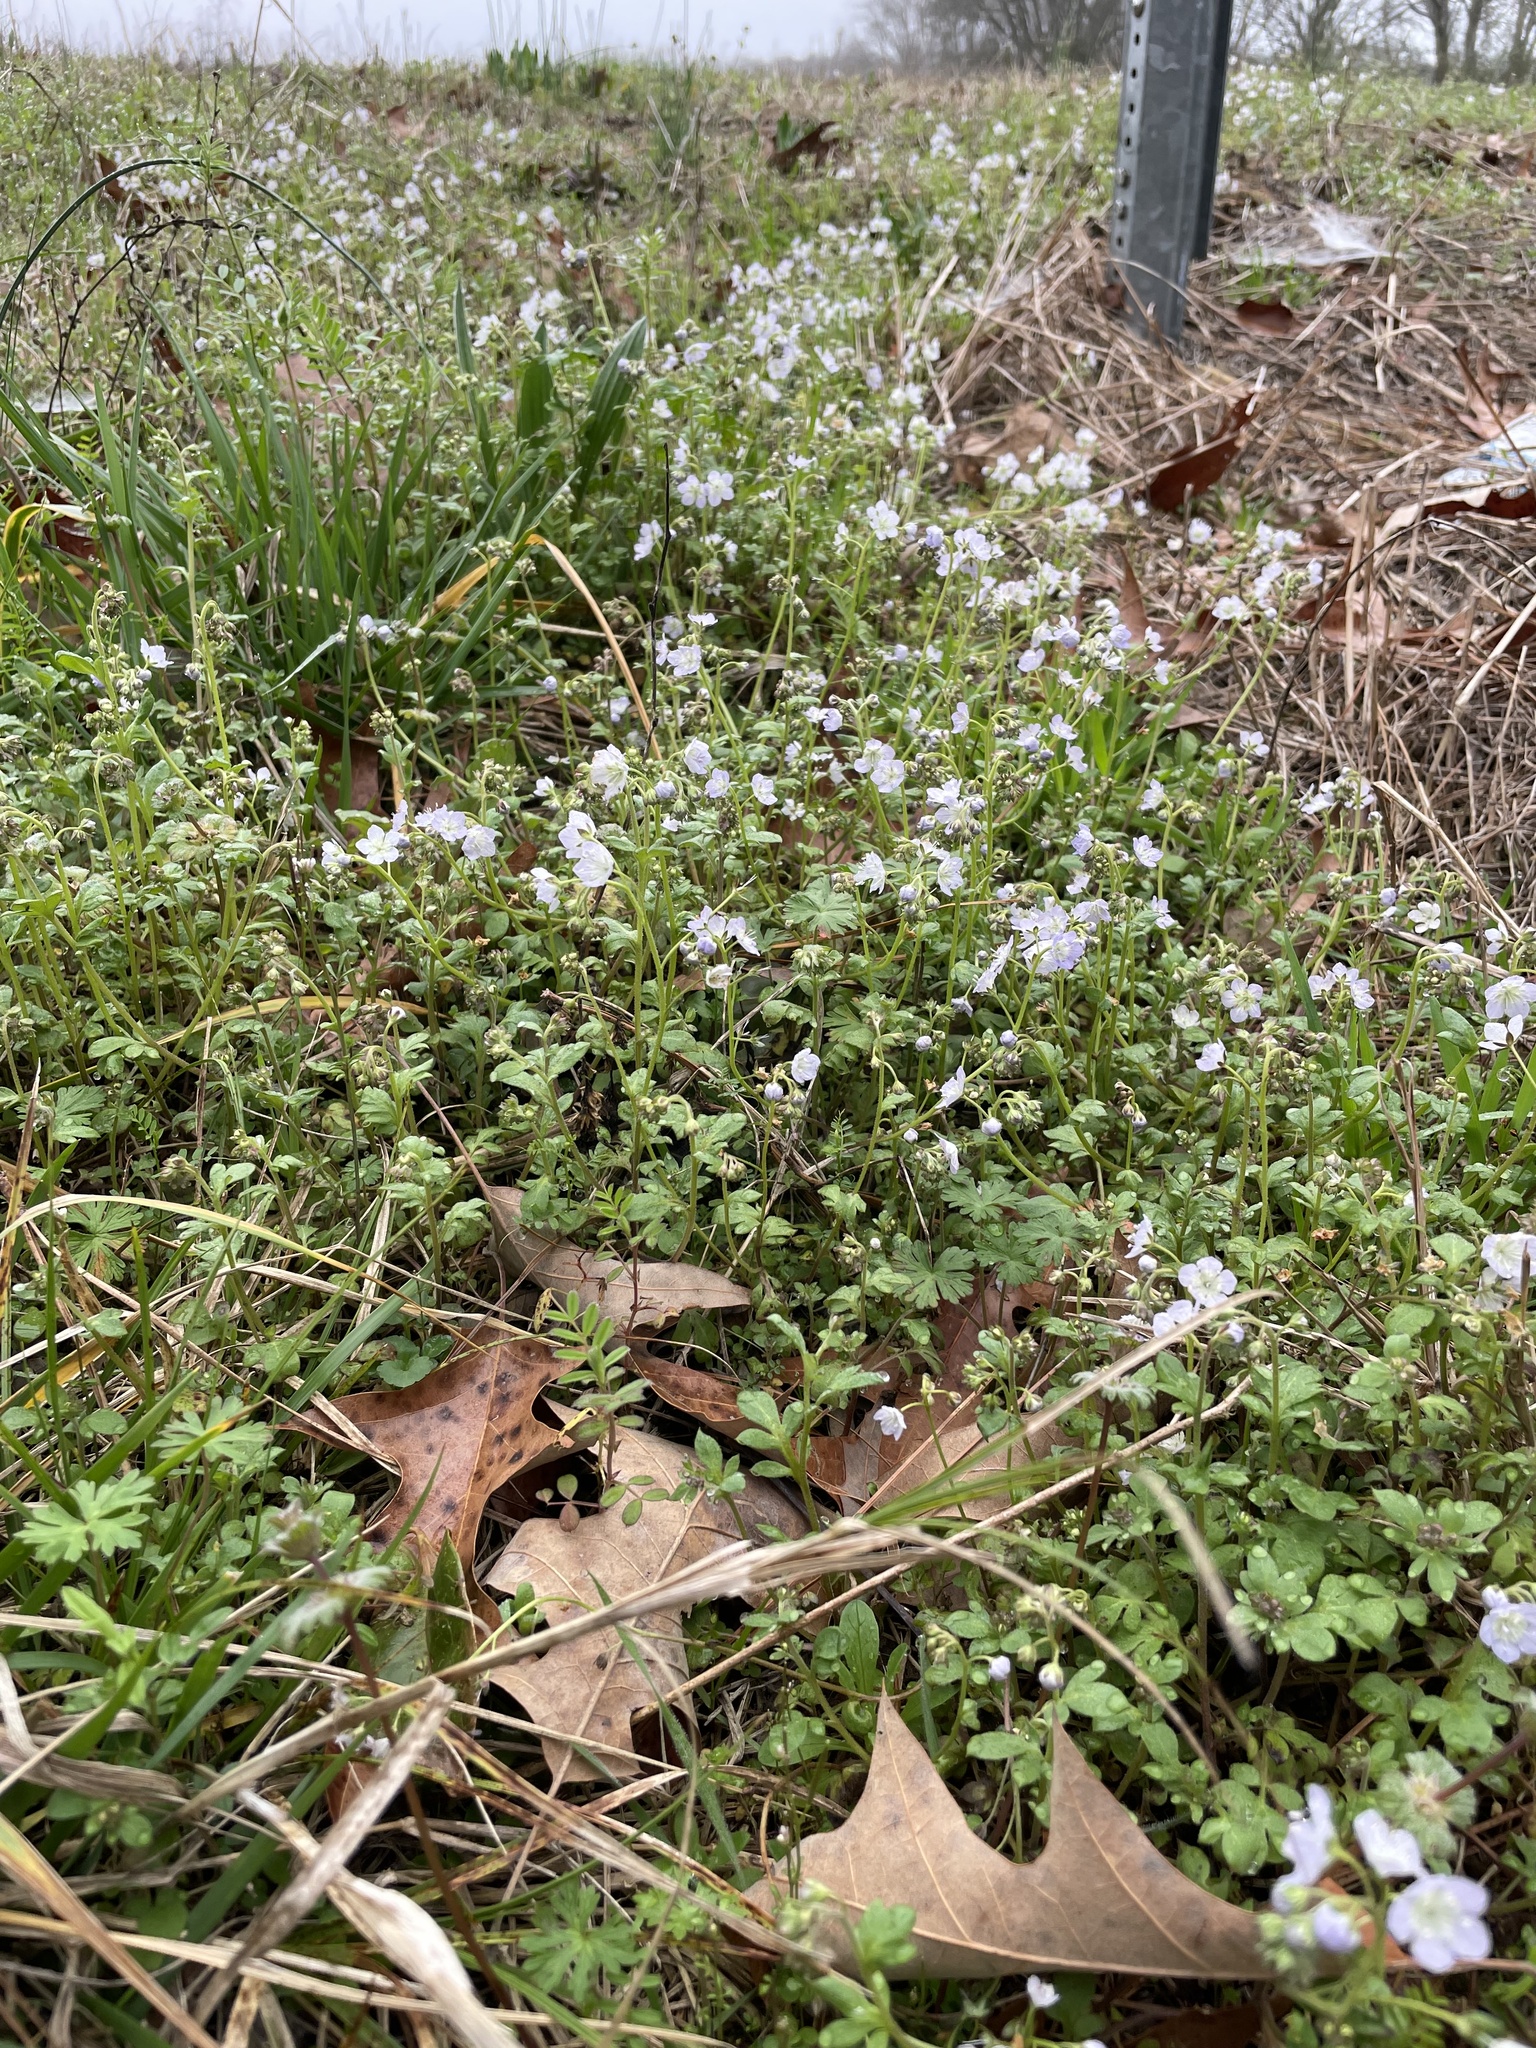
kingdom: Plantae
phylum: Tracheophyta
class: Magnoliopsida
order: Boraginales
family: Hydrophyllaceae
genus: Phacelia
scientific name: Phacelia dubia
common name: Appalachian phacelia
